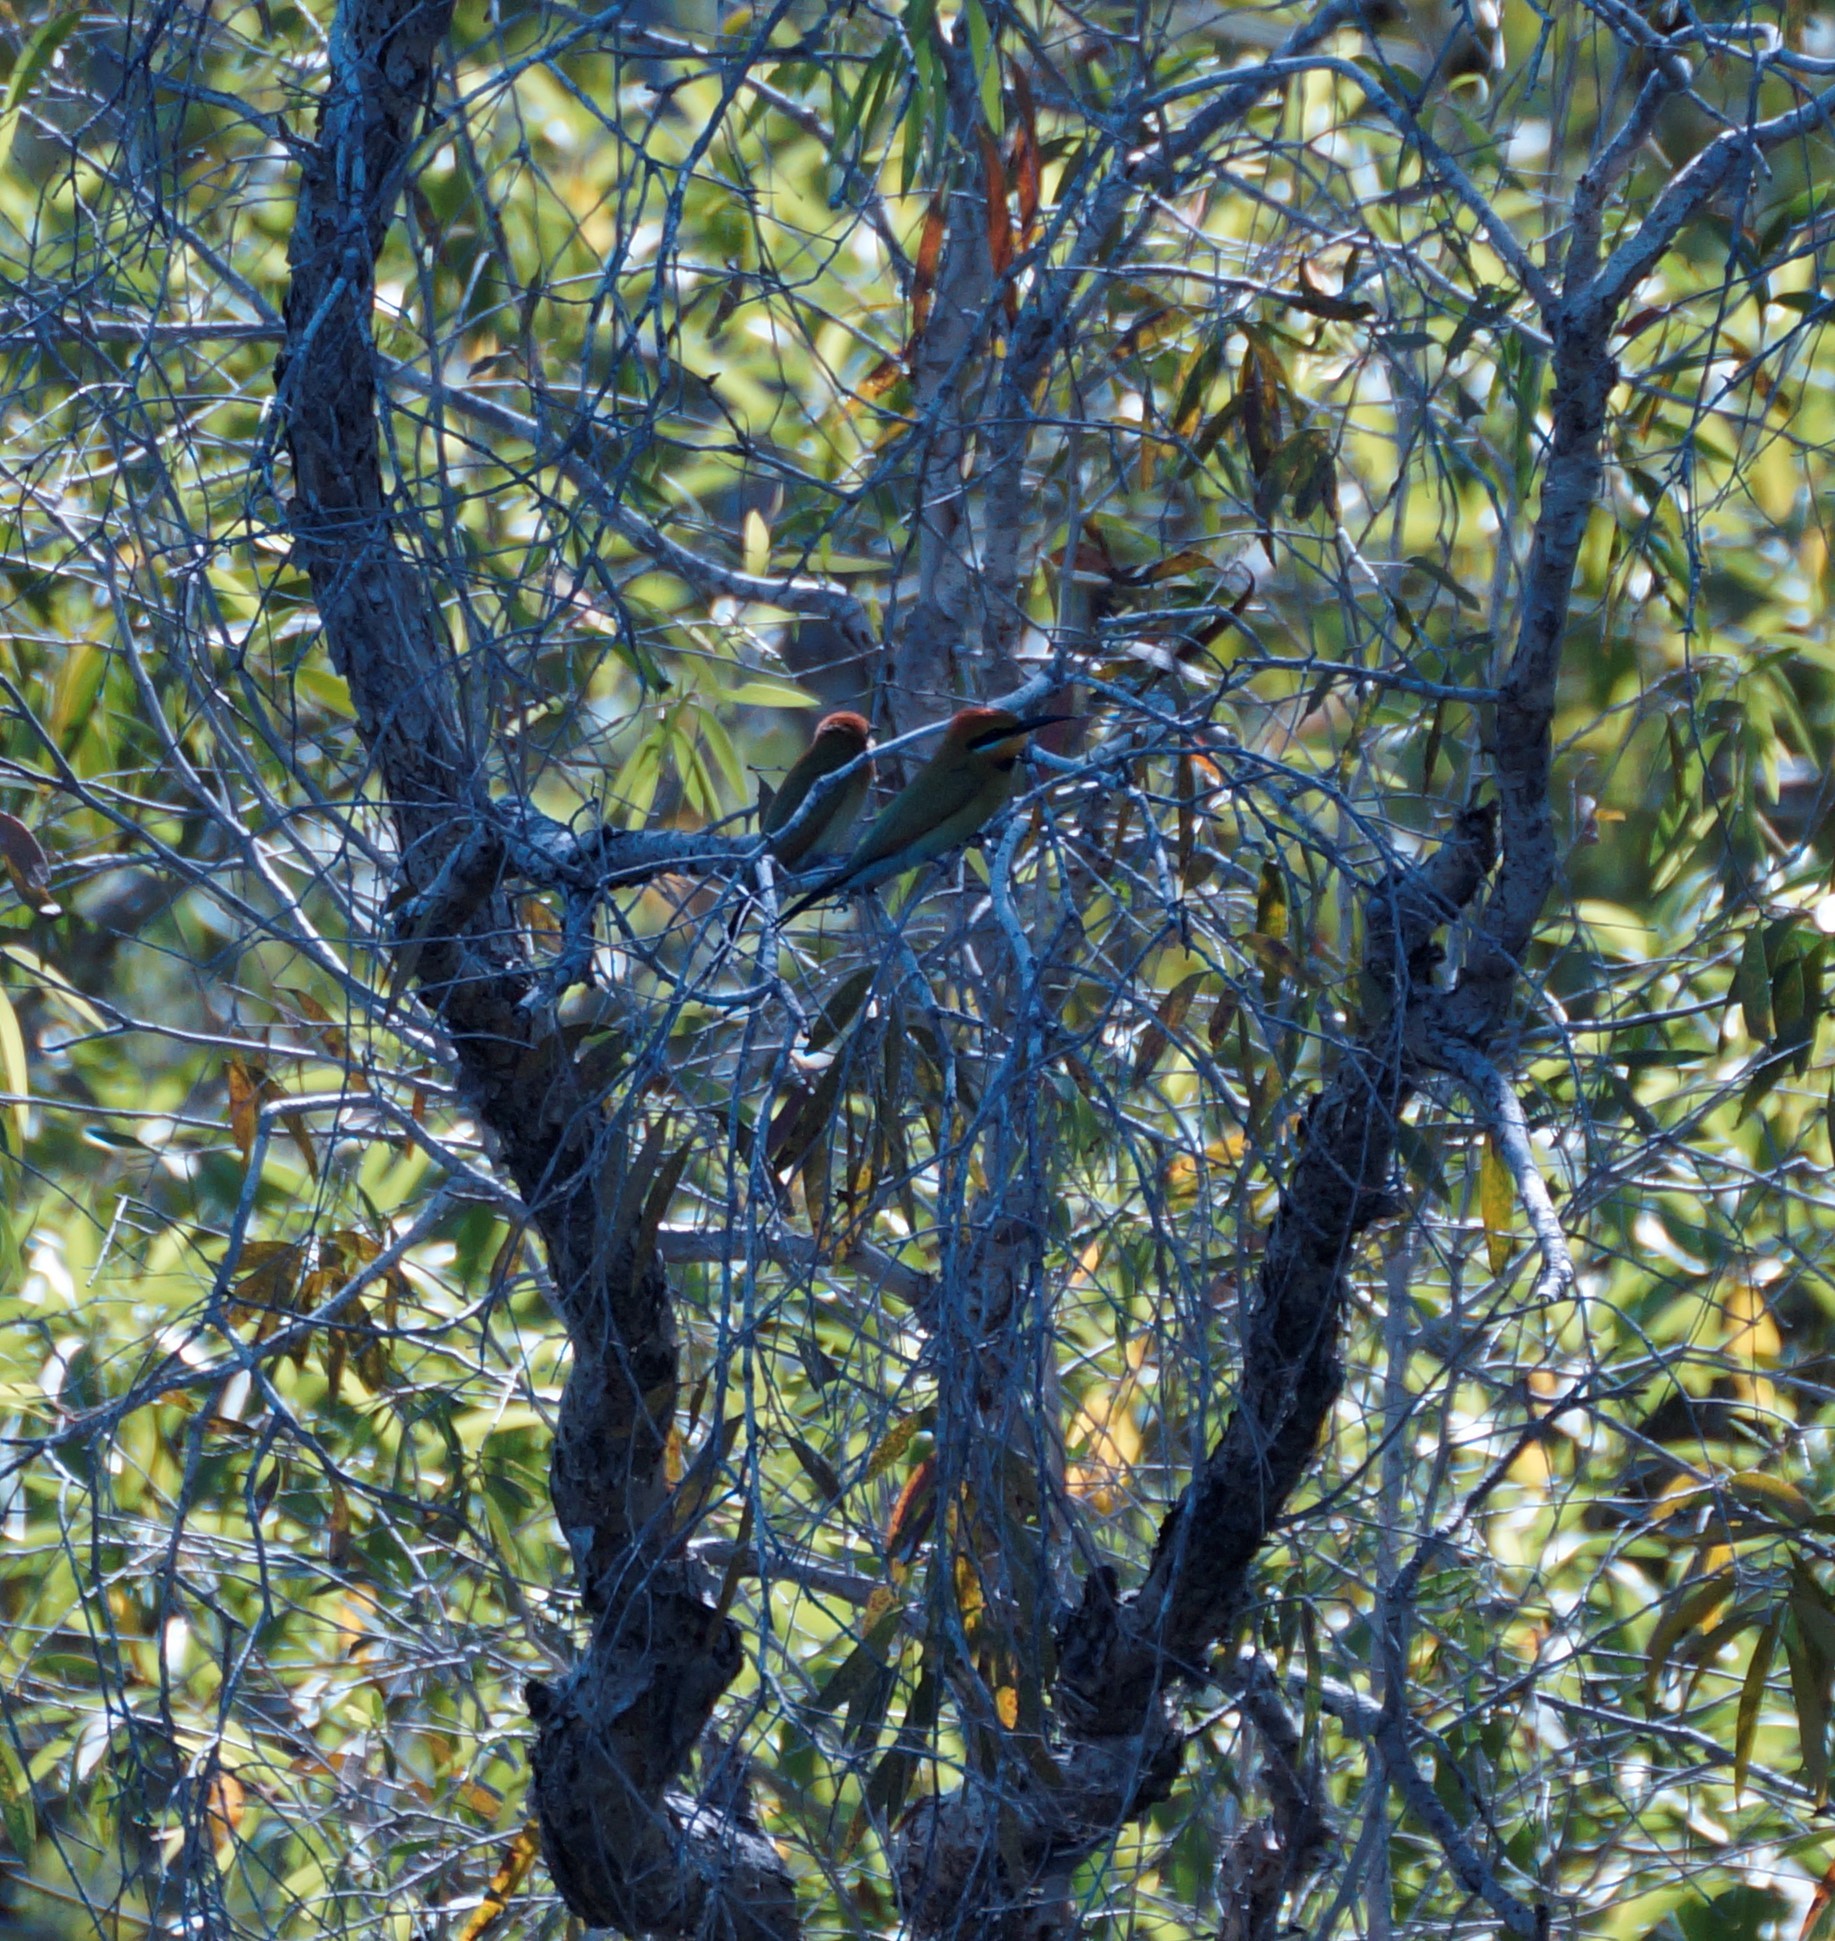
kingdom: Animalia
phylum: Chordata
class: Aves
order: Coraciiformes
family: Meropidae
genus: Merops
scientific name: Merops ornatus
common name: Rainbow bee-eater
